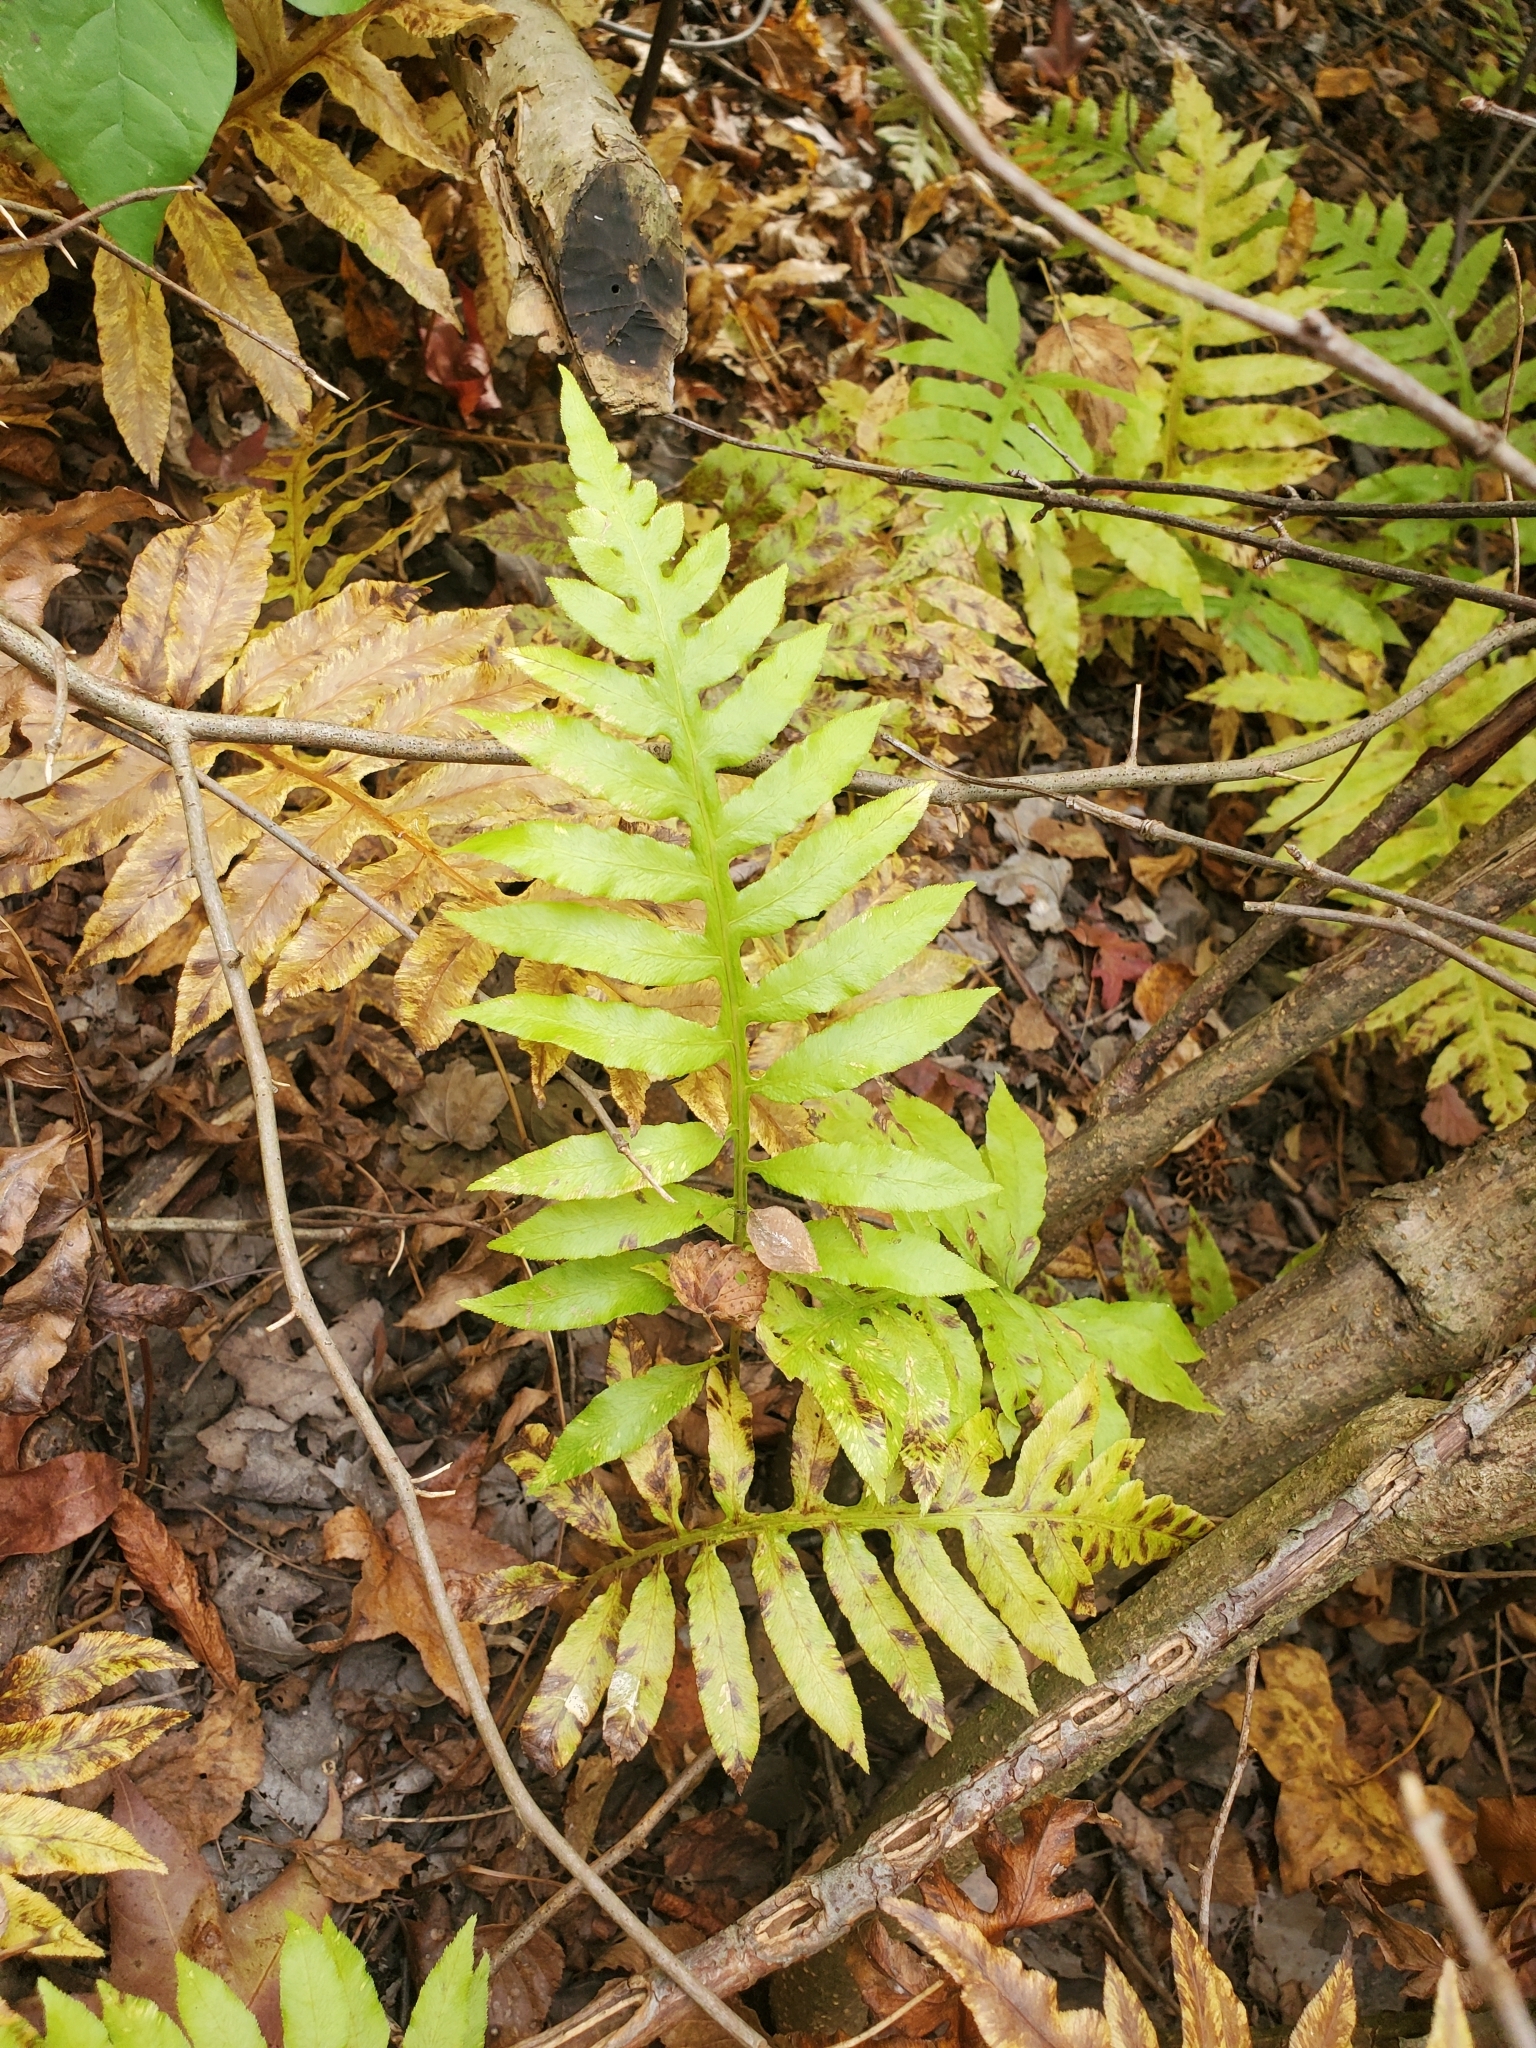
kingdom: Plantae
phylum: Tracheophyta
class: Polypodiopsida
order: Polypodiales
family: Blechnaceae
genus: Lorinseria
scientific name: Lorinseria areolata
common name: Dwarf chain fern
